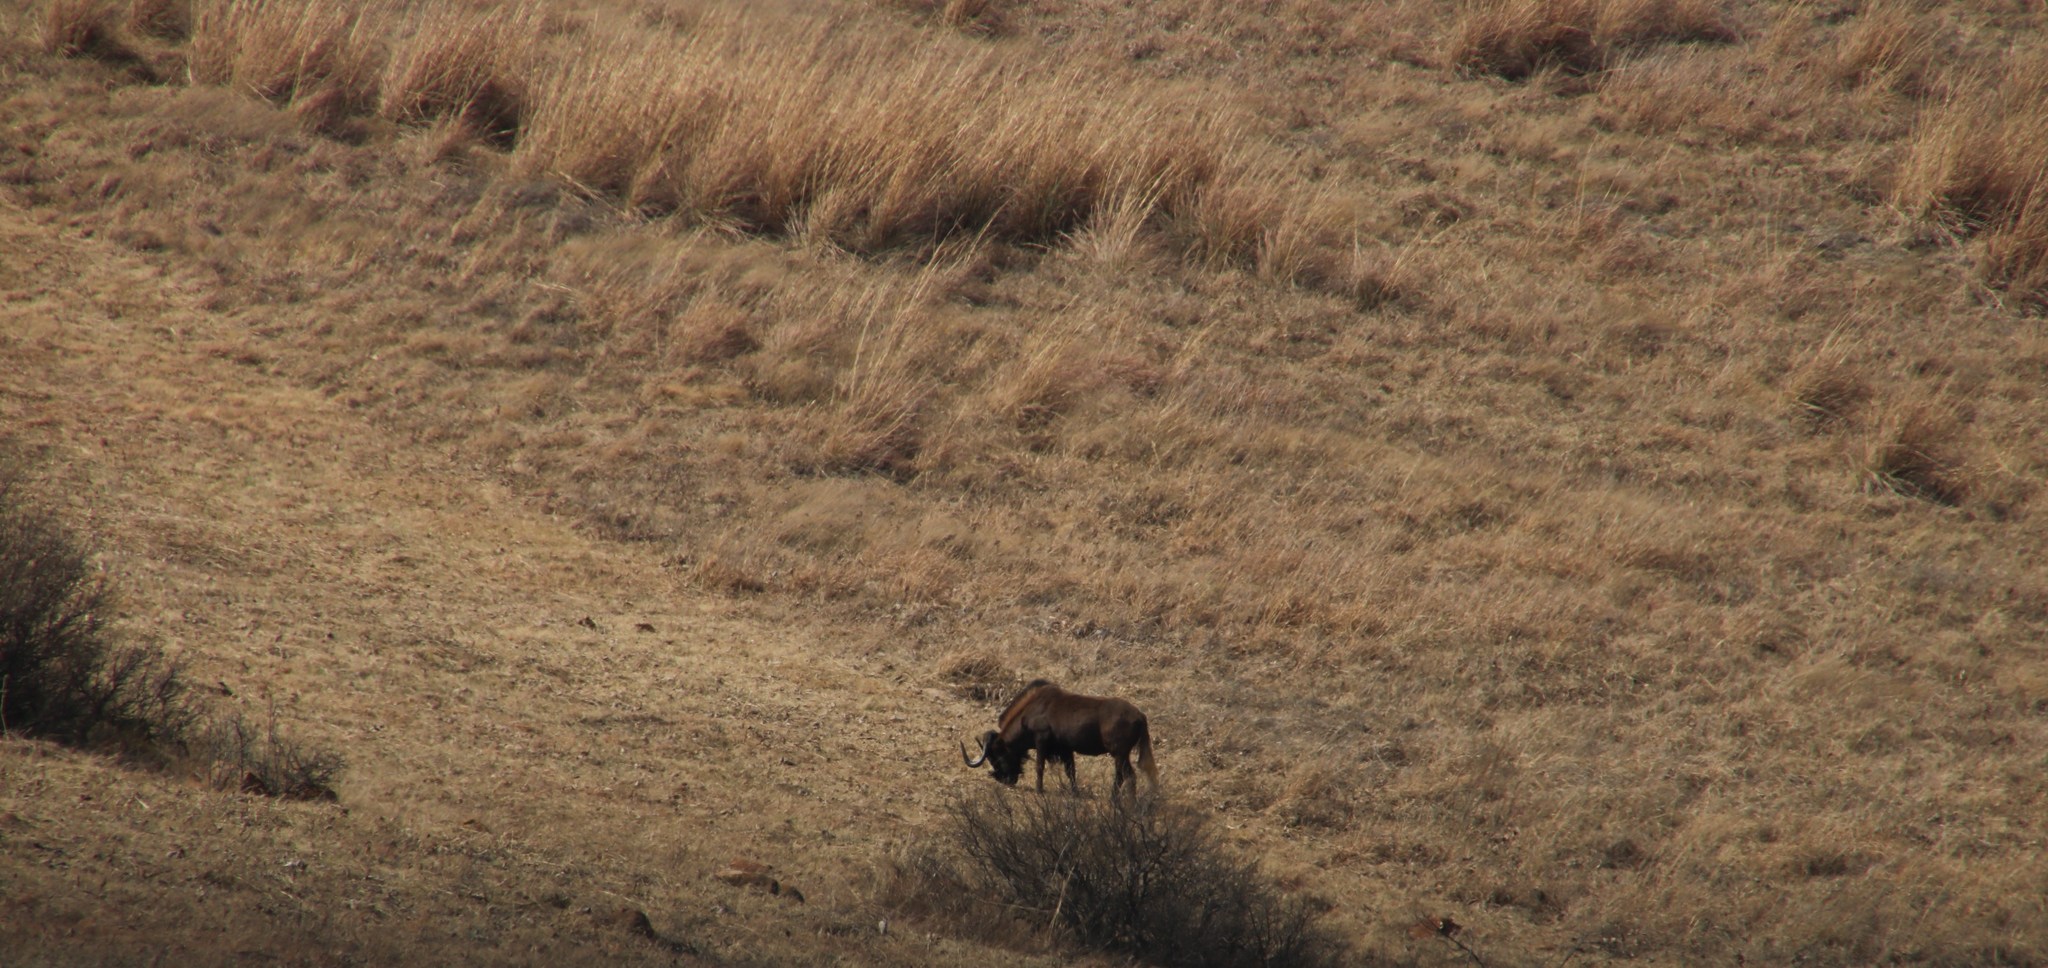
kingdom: Animalia
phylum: Chordata
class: Mammalia
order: Artiodactyla
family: Bovidae
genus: Connochaetes
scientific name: Connochaetes gnou
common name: Black wildebeest
